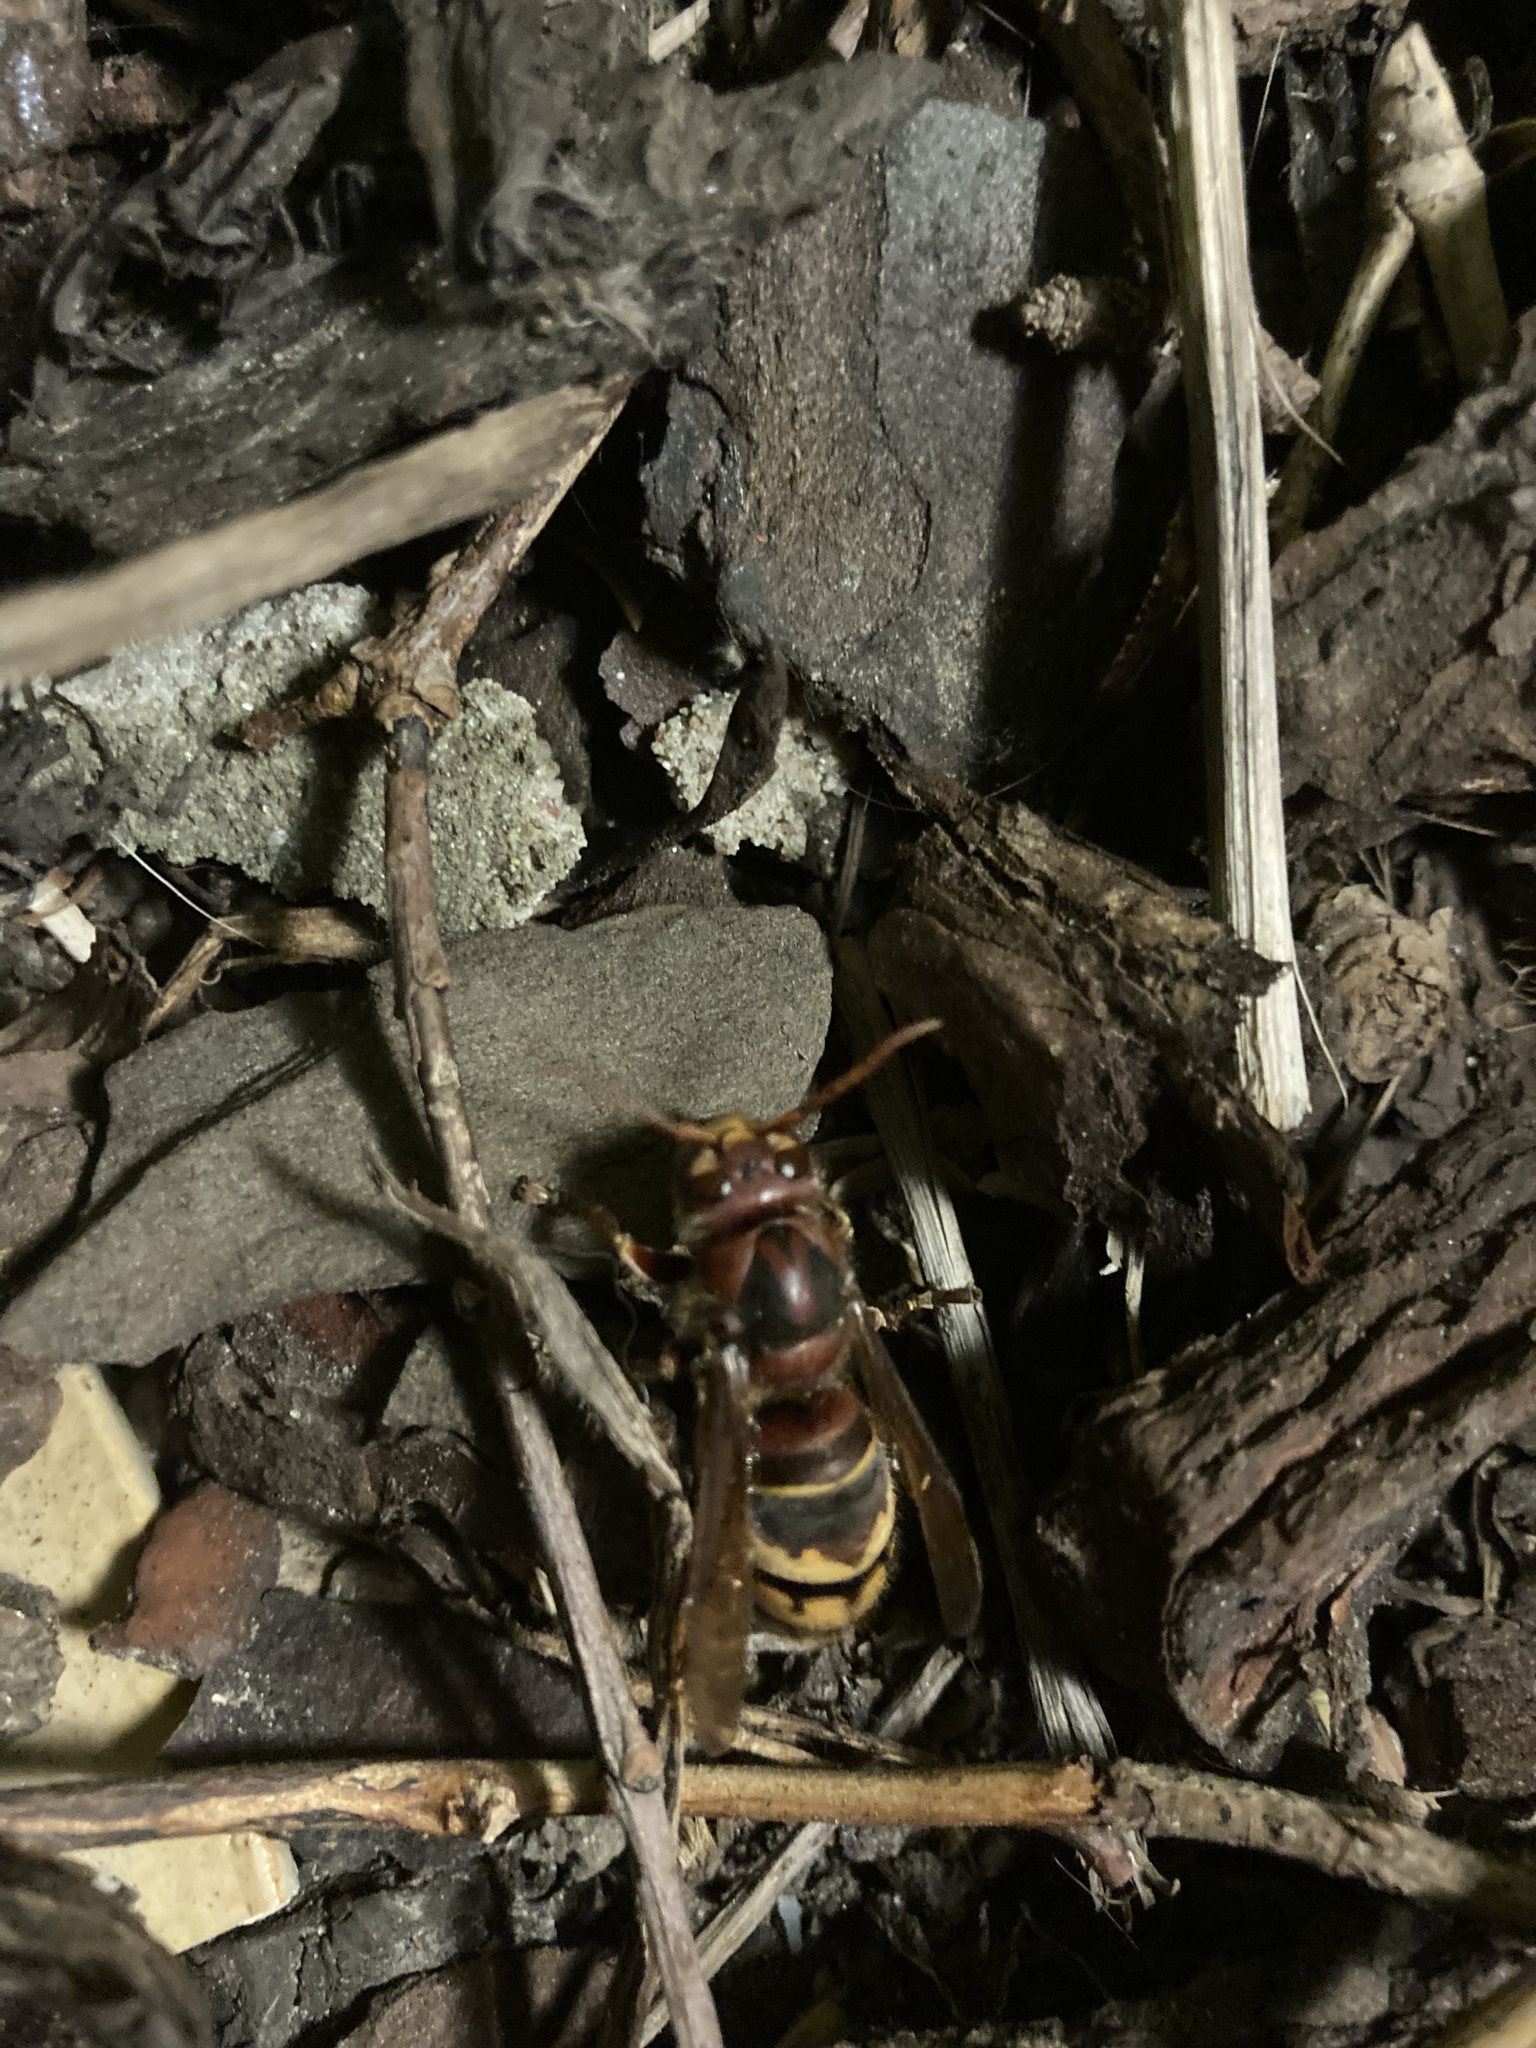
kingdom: Animalia
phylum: Arthropoda
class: Insecta
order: Hymenoptera
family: Vespidae
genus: Vespa
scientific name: Vespa crabro
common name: Hornet
